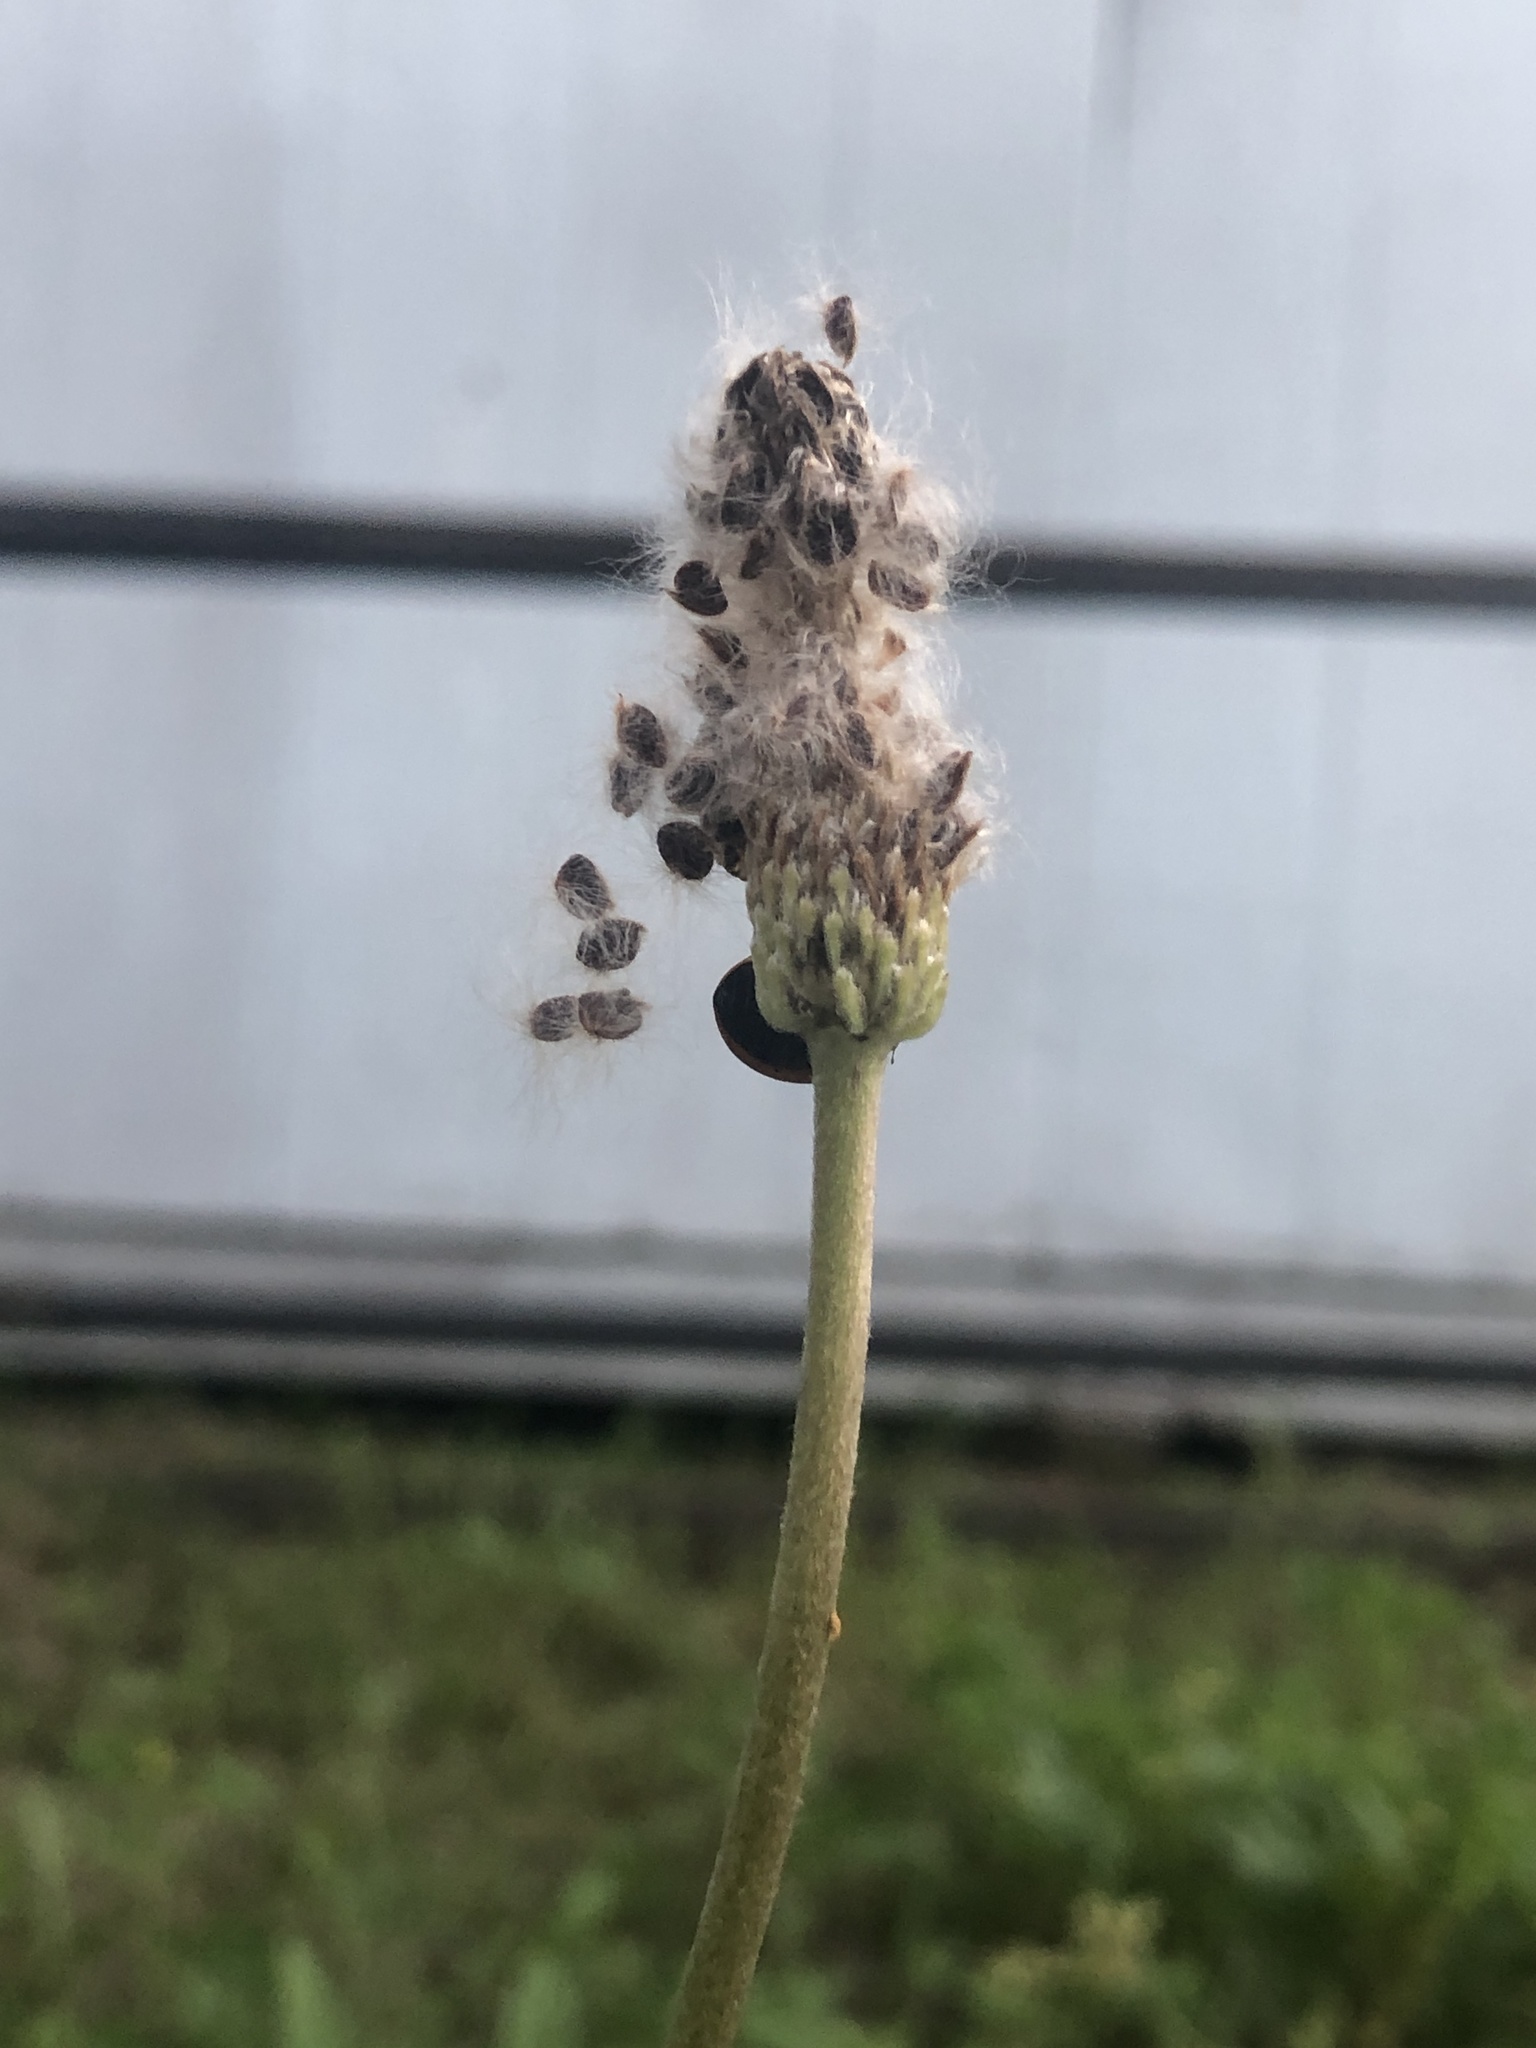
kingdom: Plantae
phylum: Tracheophyta
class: Magnoliopsida
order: Ranunculales
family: Ranunculaceae
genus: Anemone
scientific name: Anemone berlandieri
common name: Ten-petal anemone
